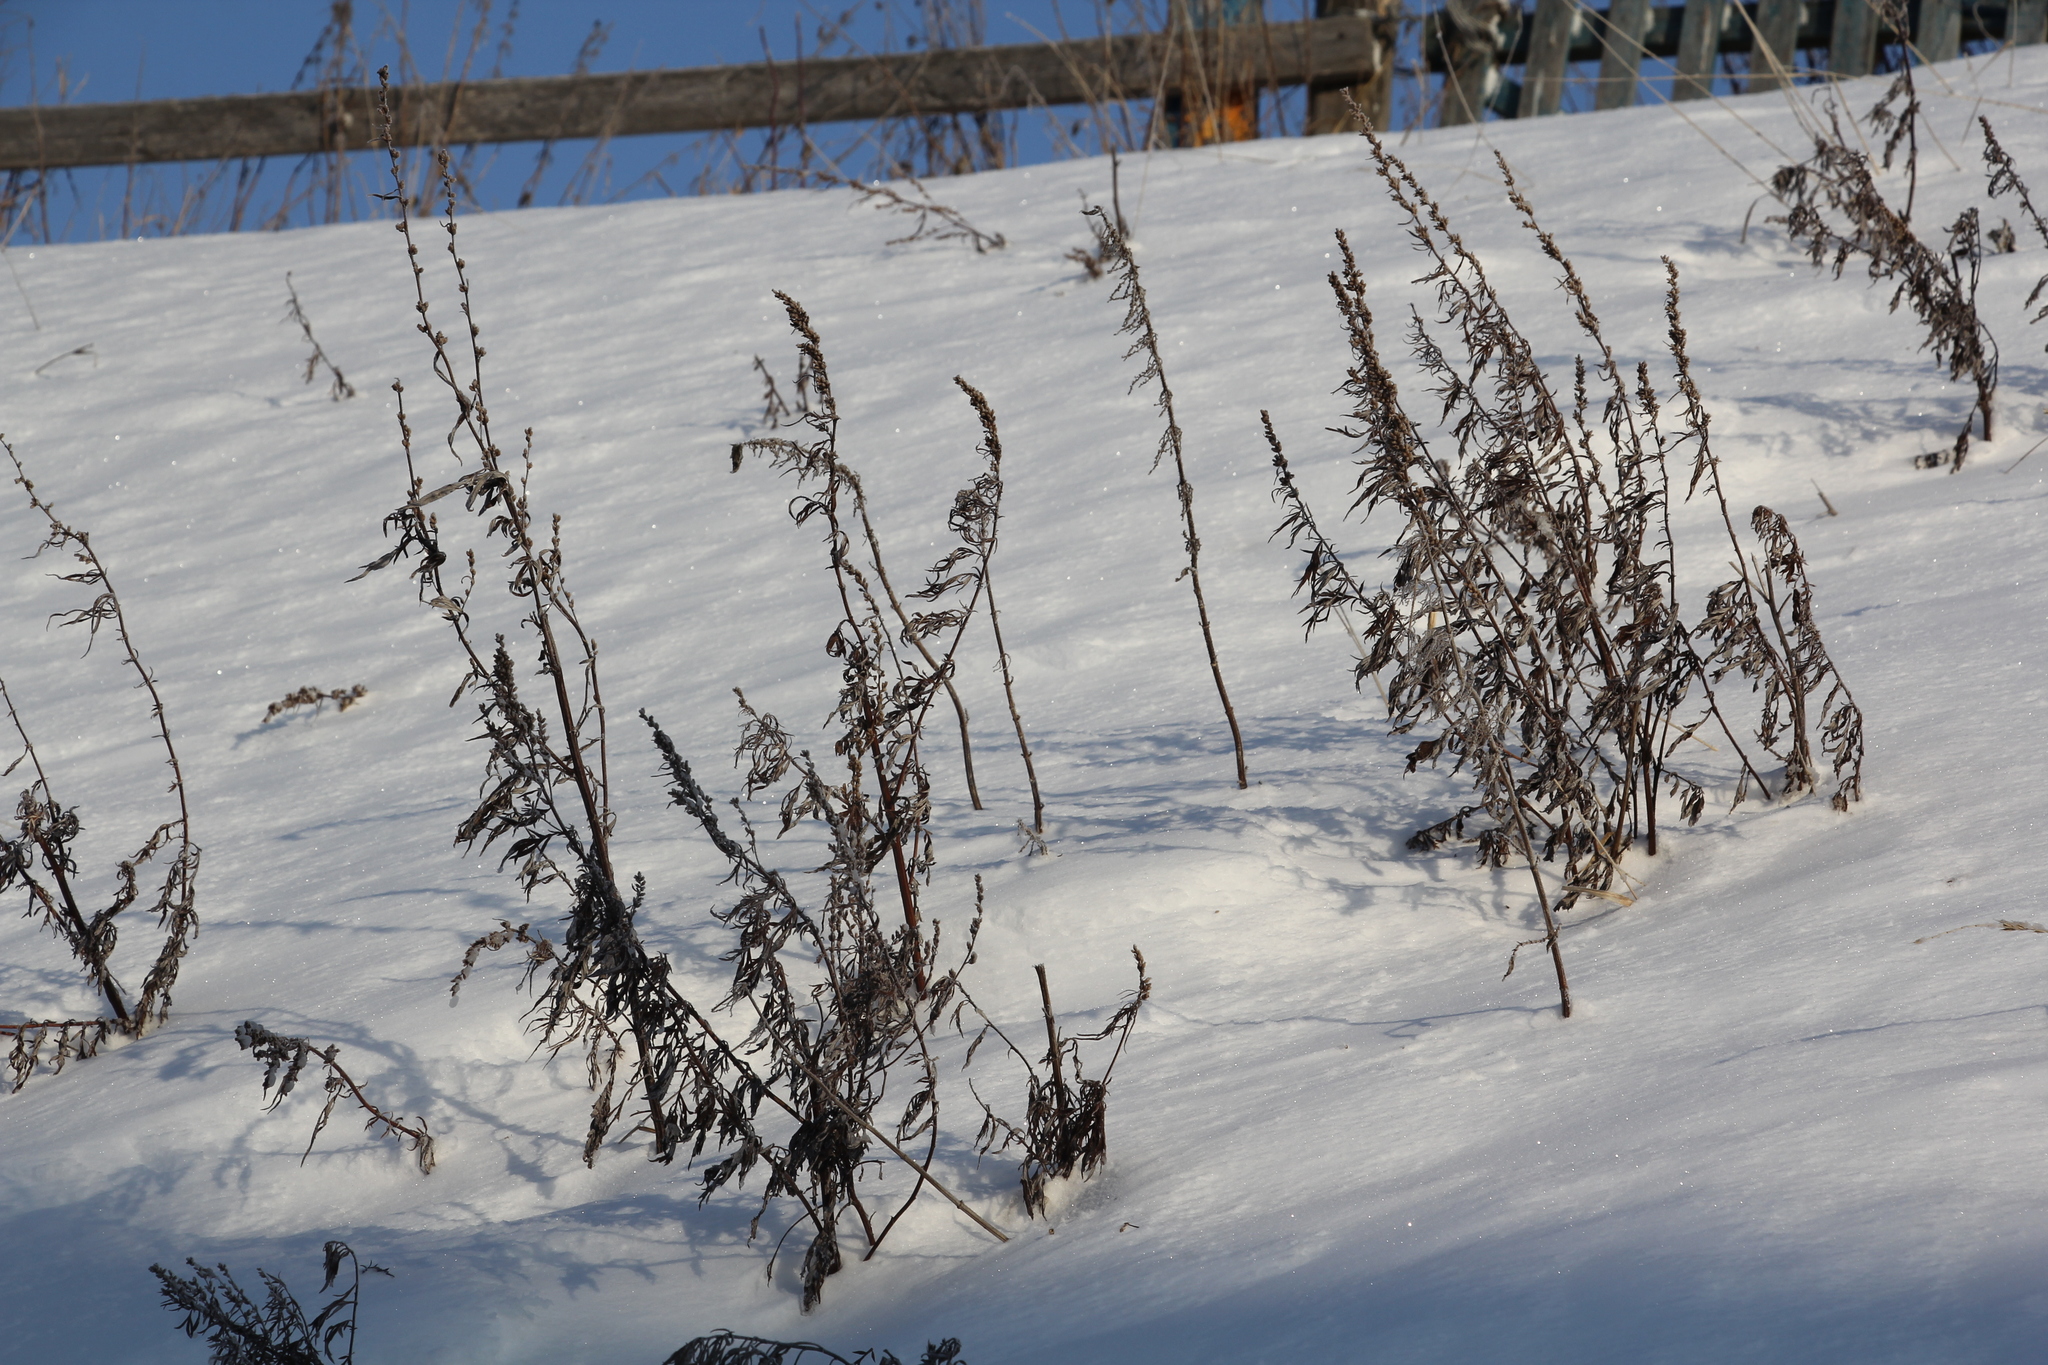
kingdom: Plantae
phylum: Tracheophyta
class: Magnoliopsida
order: Asterales
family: Asteraceae
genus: Artemisia
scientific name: Artemisia vulgaris
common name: Mugwort
